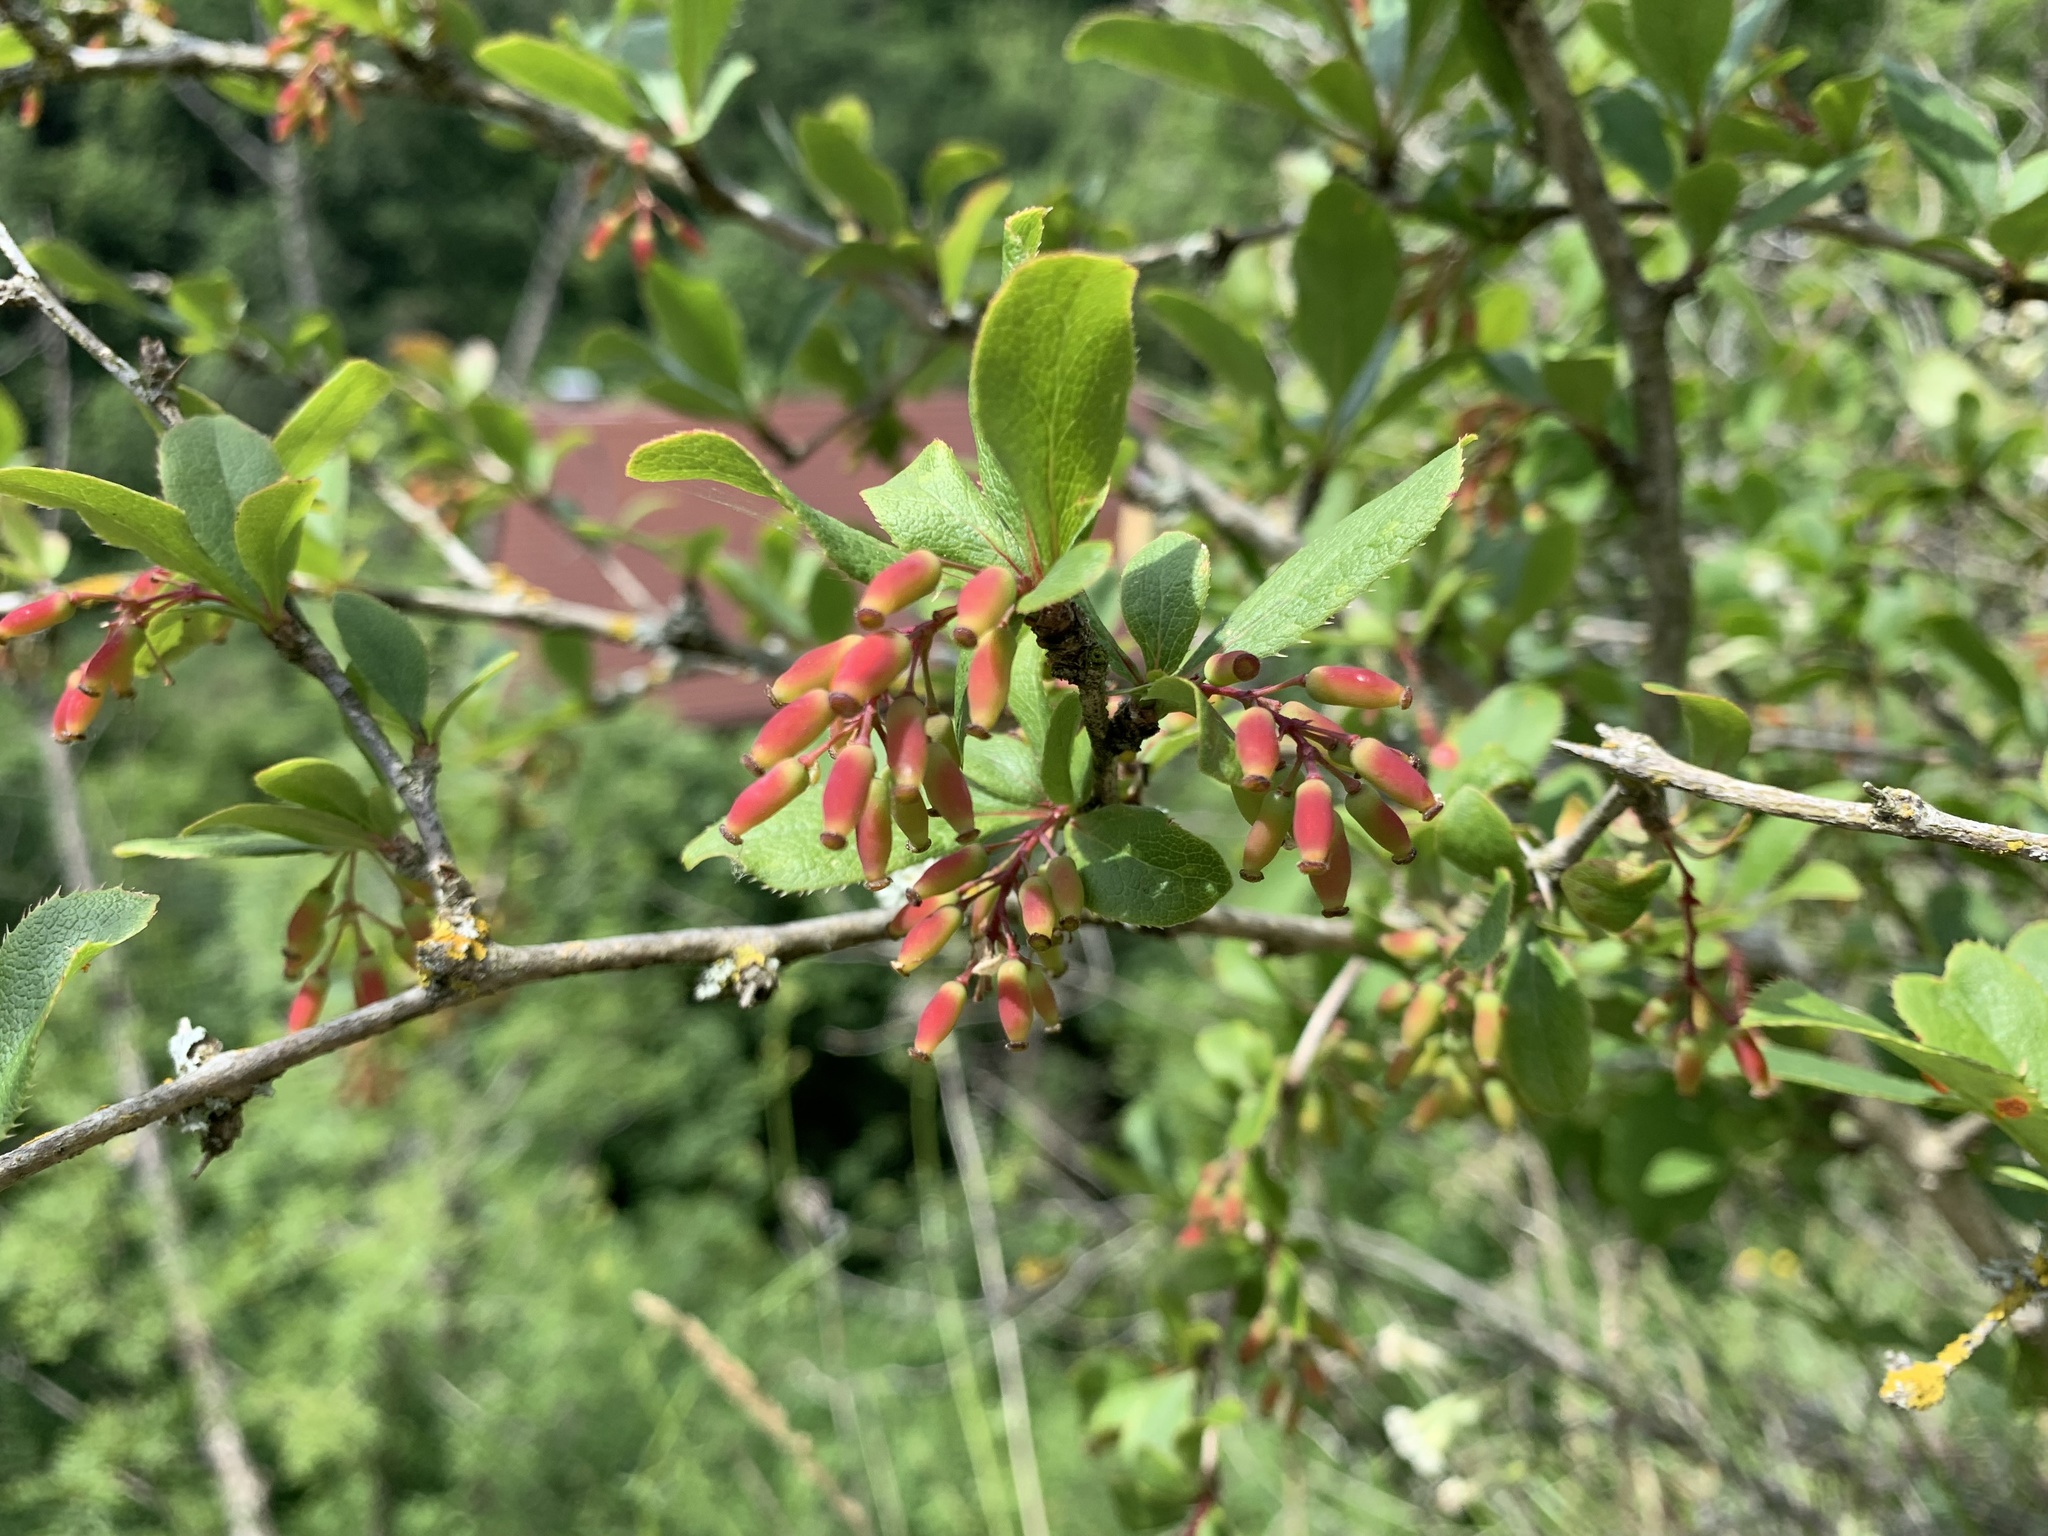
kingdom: Plantae
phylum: Tracheophyta
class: Magnoliopsida
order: Ranunculales
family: Berberidaceae
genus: Berberis
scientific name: Berberis vulgaris
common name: Barberry
